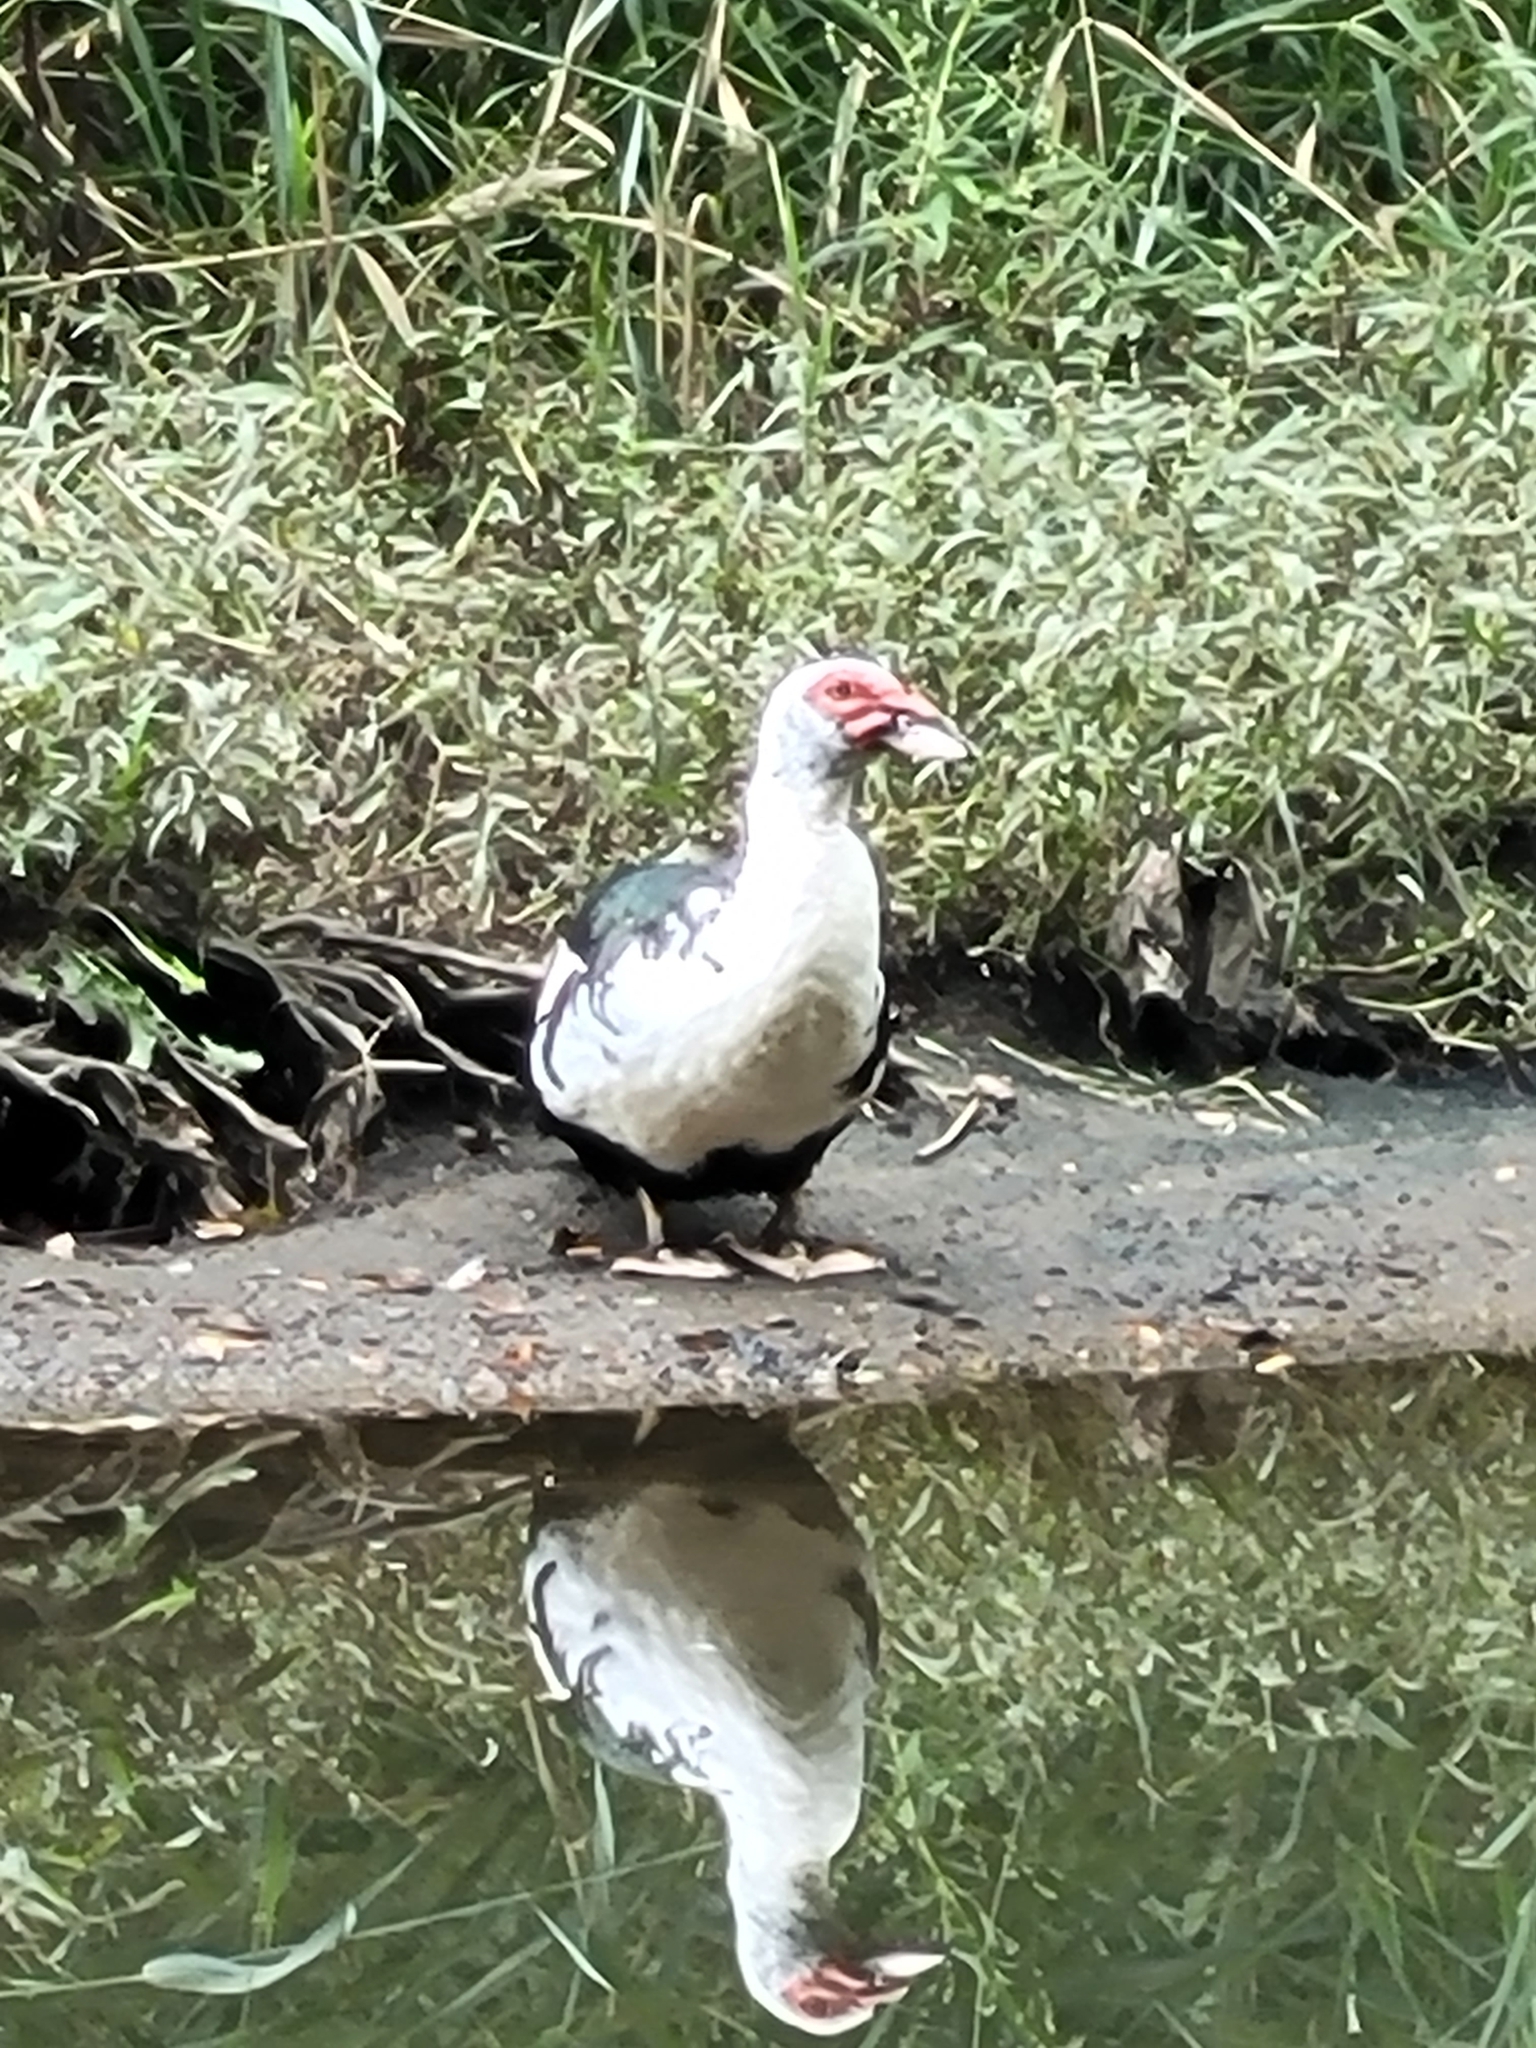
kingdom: Animalia
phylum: Chordata
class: Aves
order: Anseriformes
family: Anatidae
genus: Cairina
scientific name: Cairina moschata
